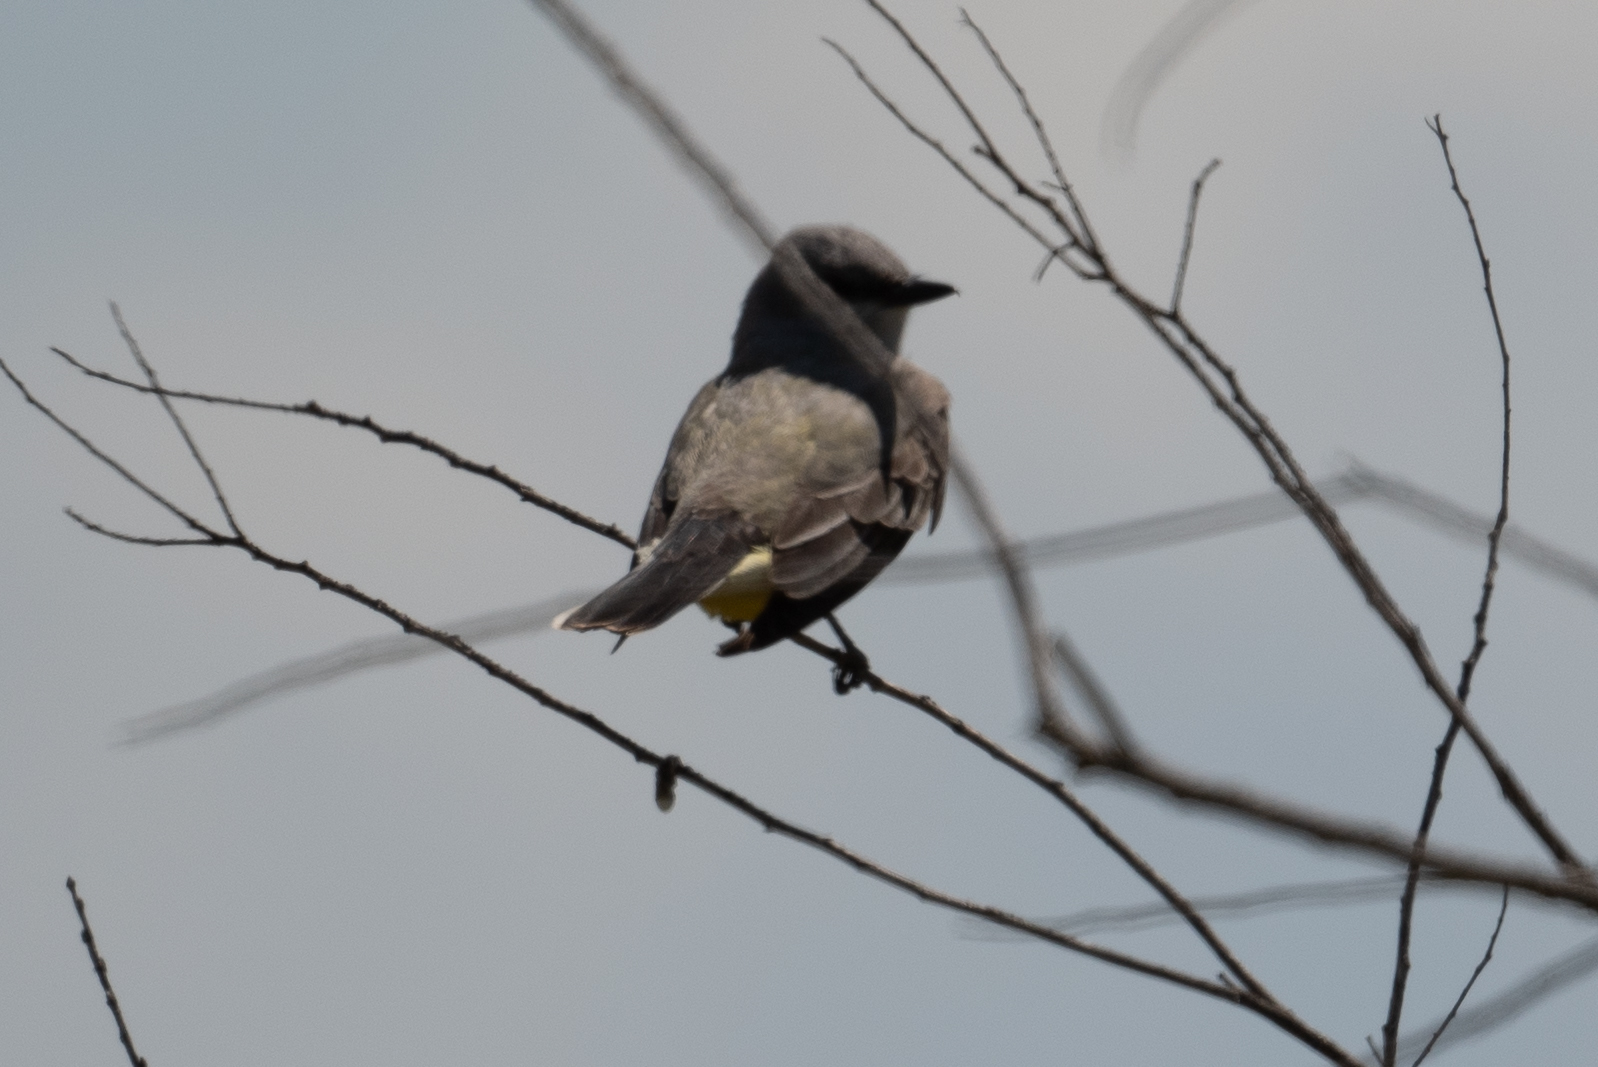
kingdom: Animalia
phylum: Chordata
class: Aves
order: Passeriformes
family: Tyrannidae
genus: Tyrannus
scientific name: Tyrannus verticalis
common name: Western kingbird
